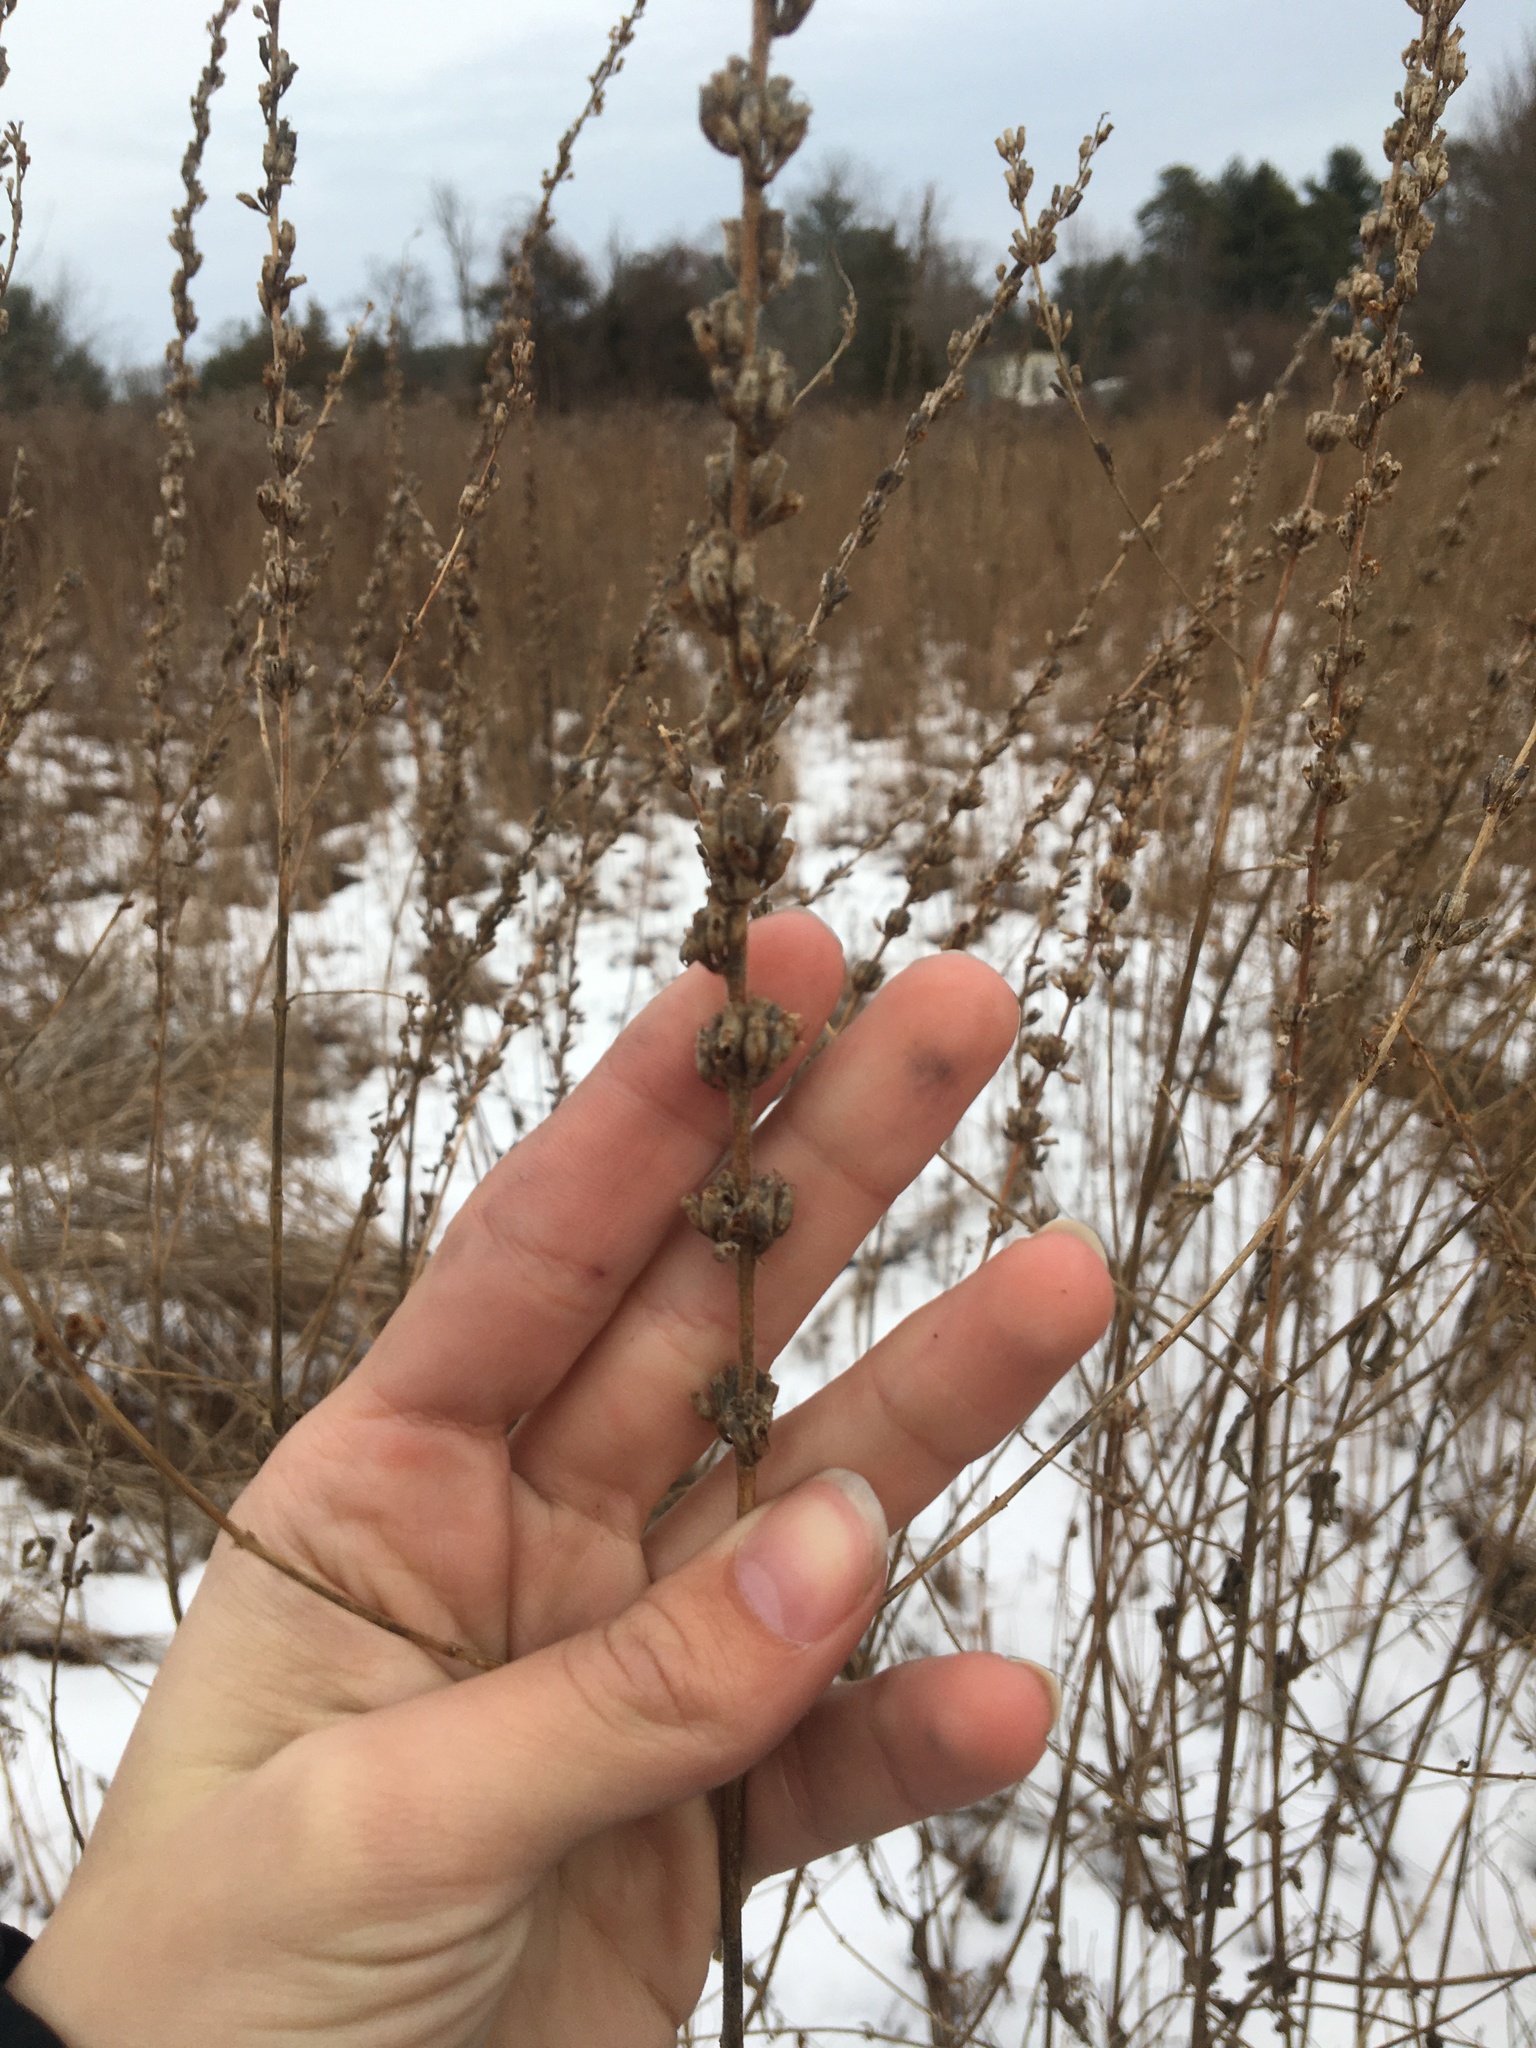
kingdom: Plantae
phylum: Tracheophyta
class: Magnoliopsida
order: Myrtales
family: Lythraceae
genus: Lythrum
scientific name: Lythrum salicaria
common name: Purple loosestrife
